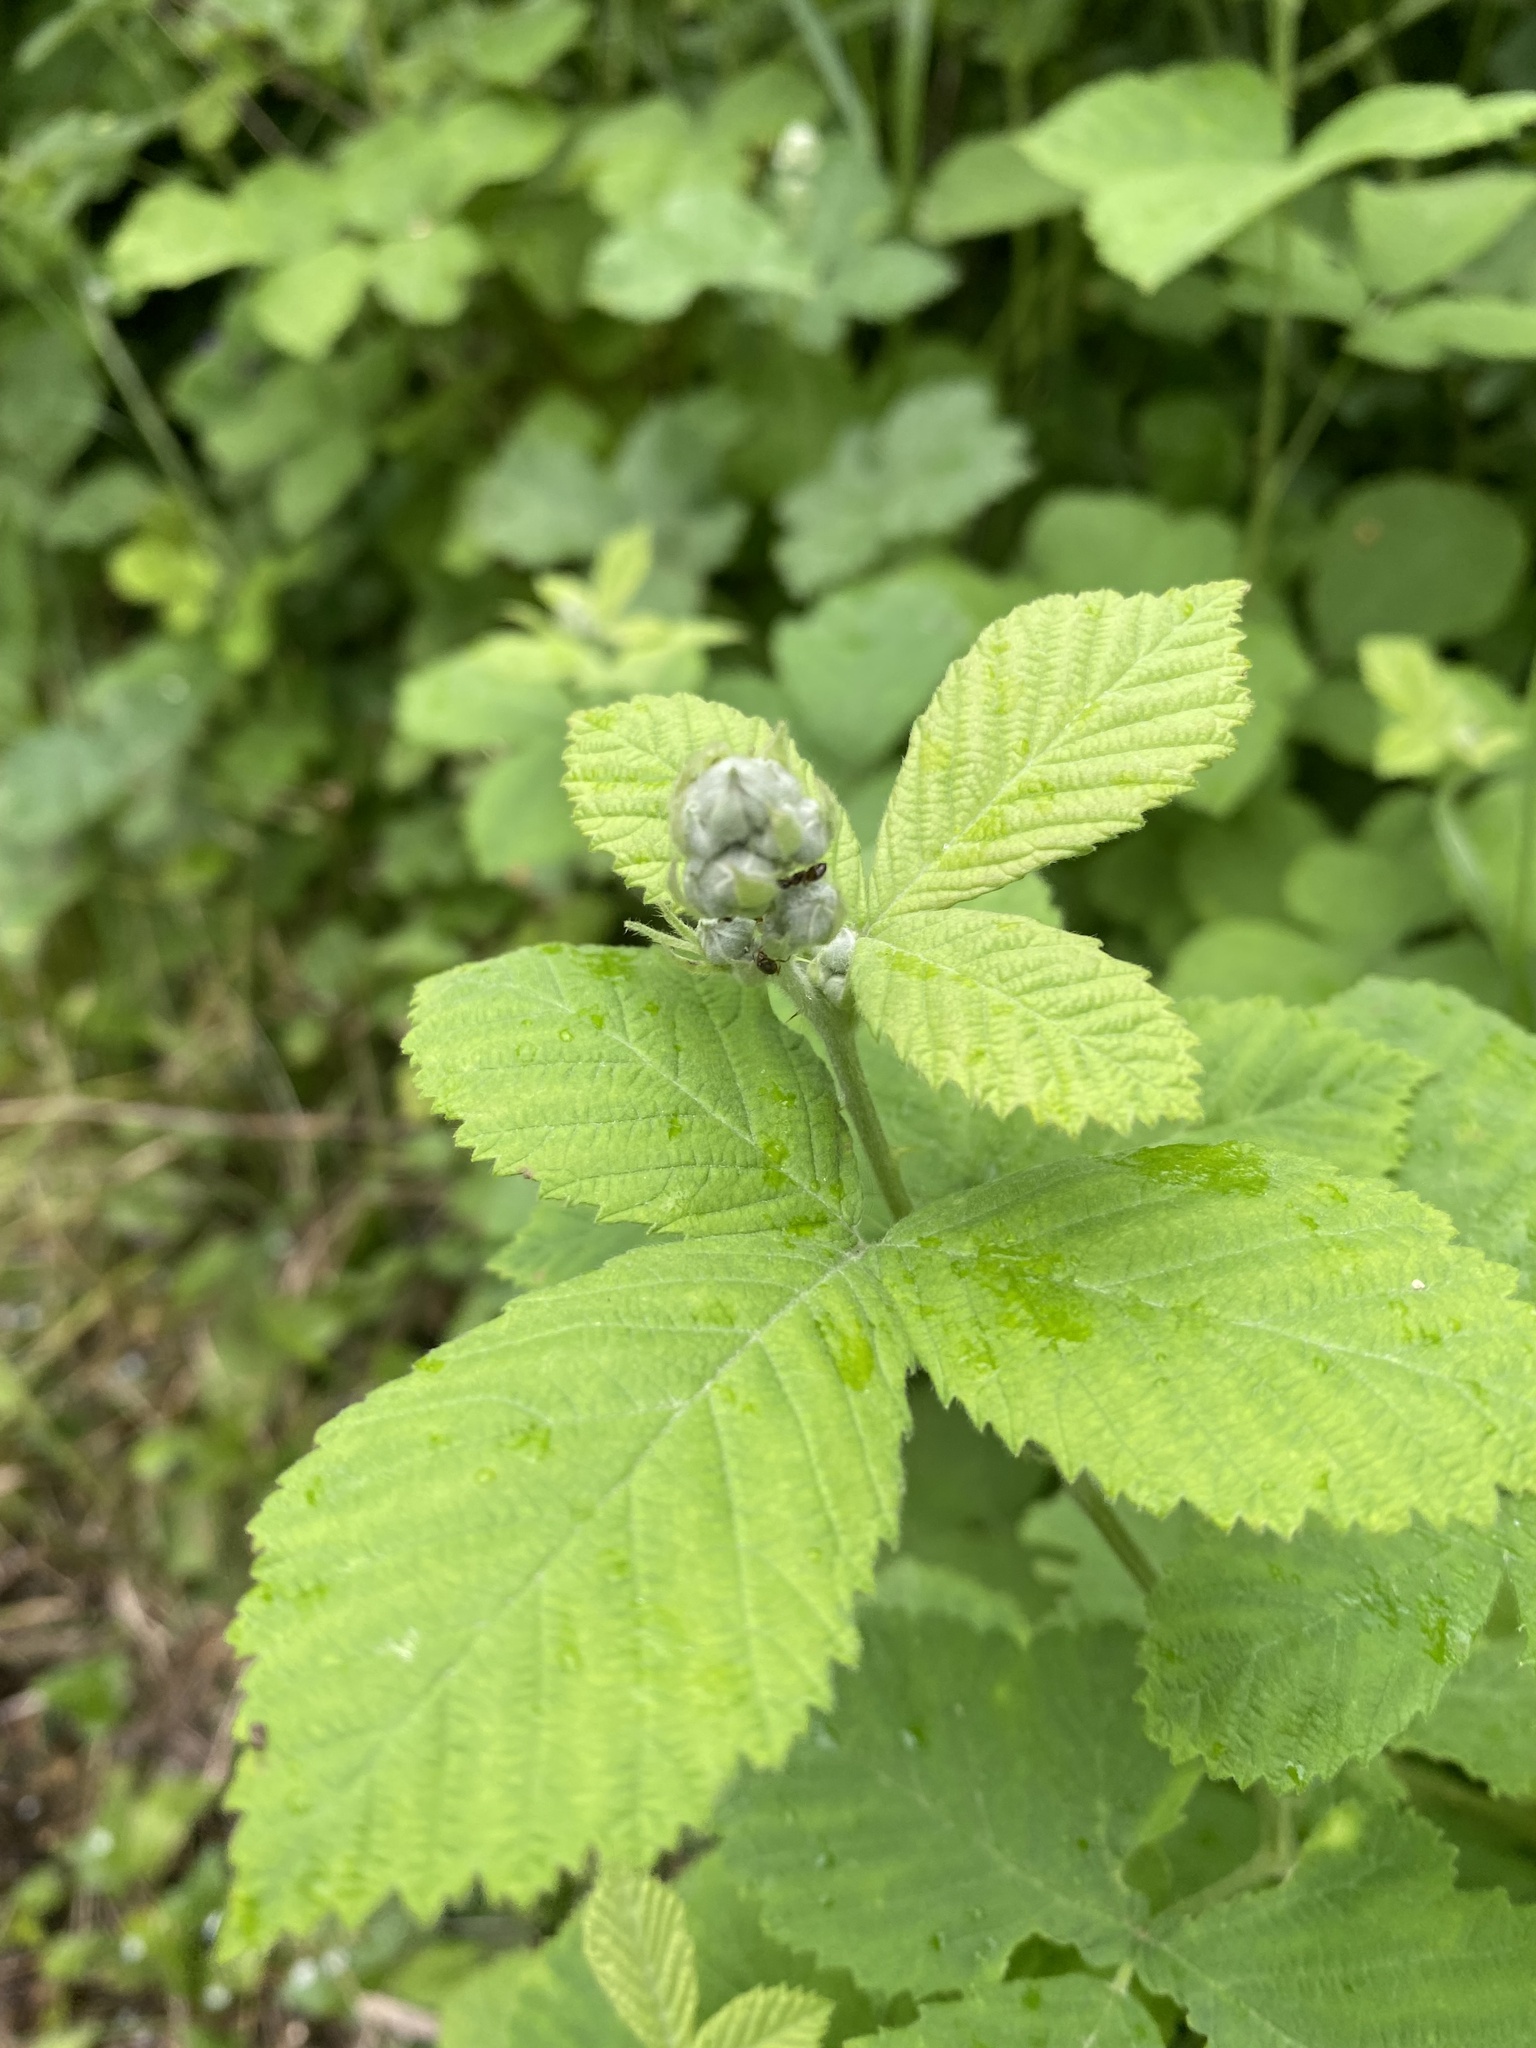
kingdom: Plantae
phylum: Tracheophyta
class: Magnoliopsida
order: Rosales
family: Rosaceae
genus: Rubus
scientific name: Rubus canescens
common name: Wooly blackberry
